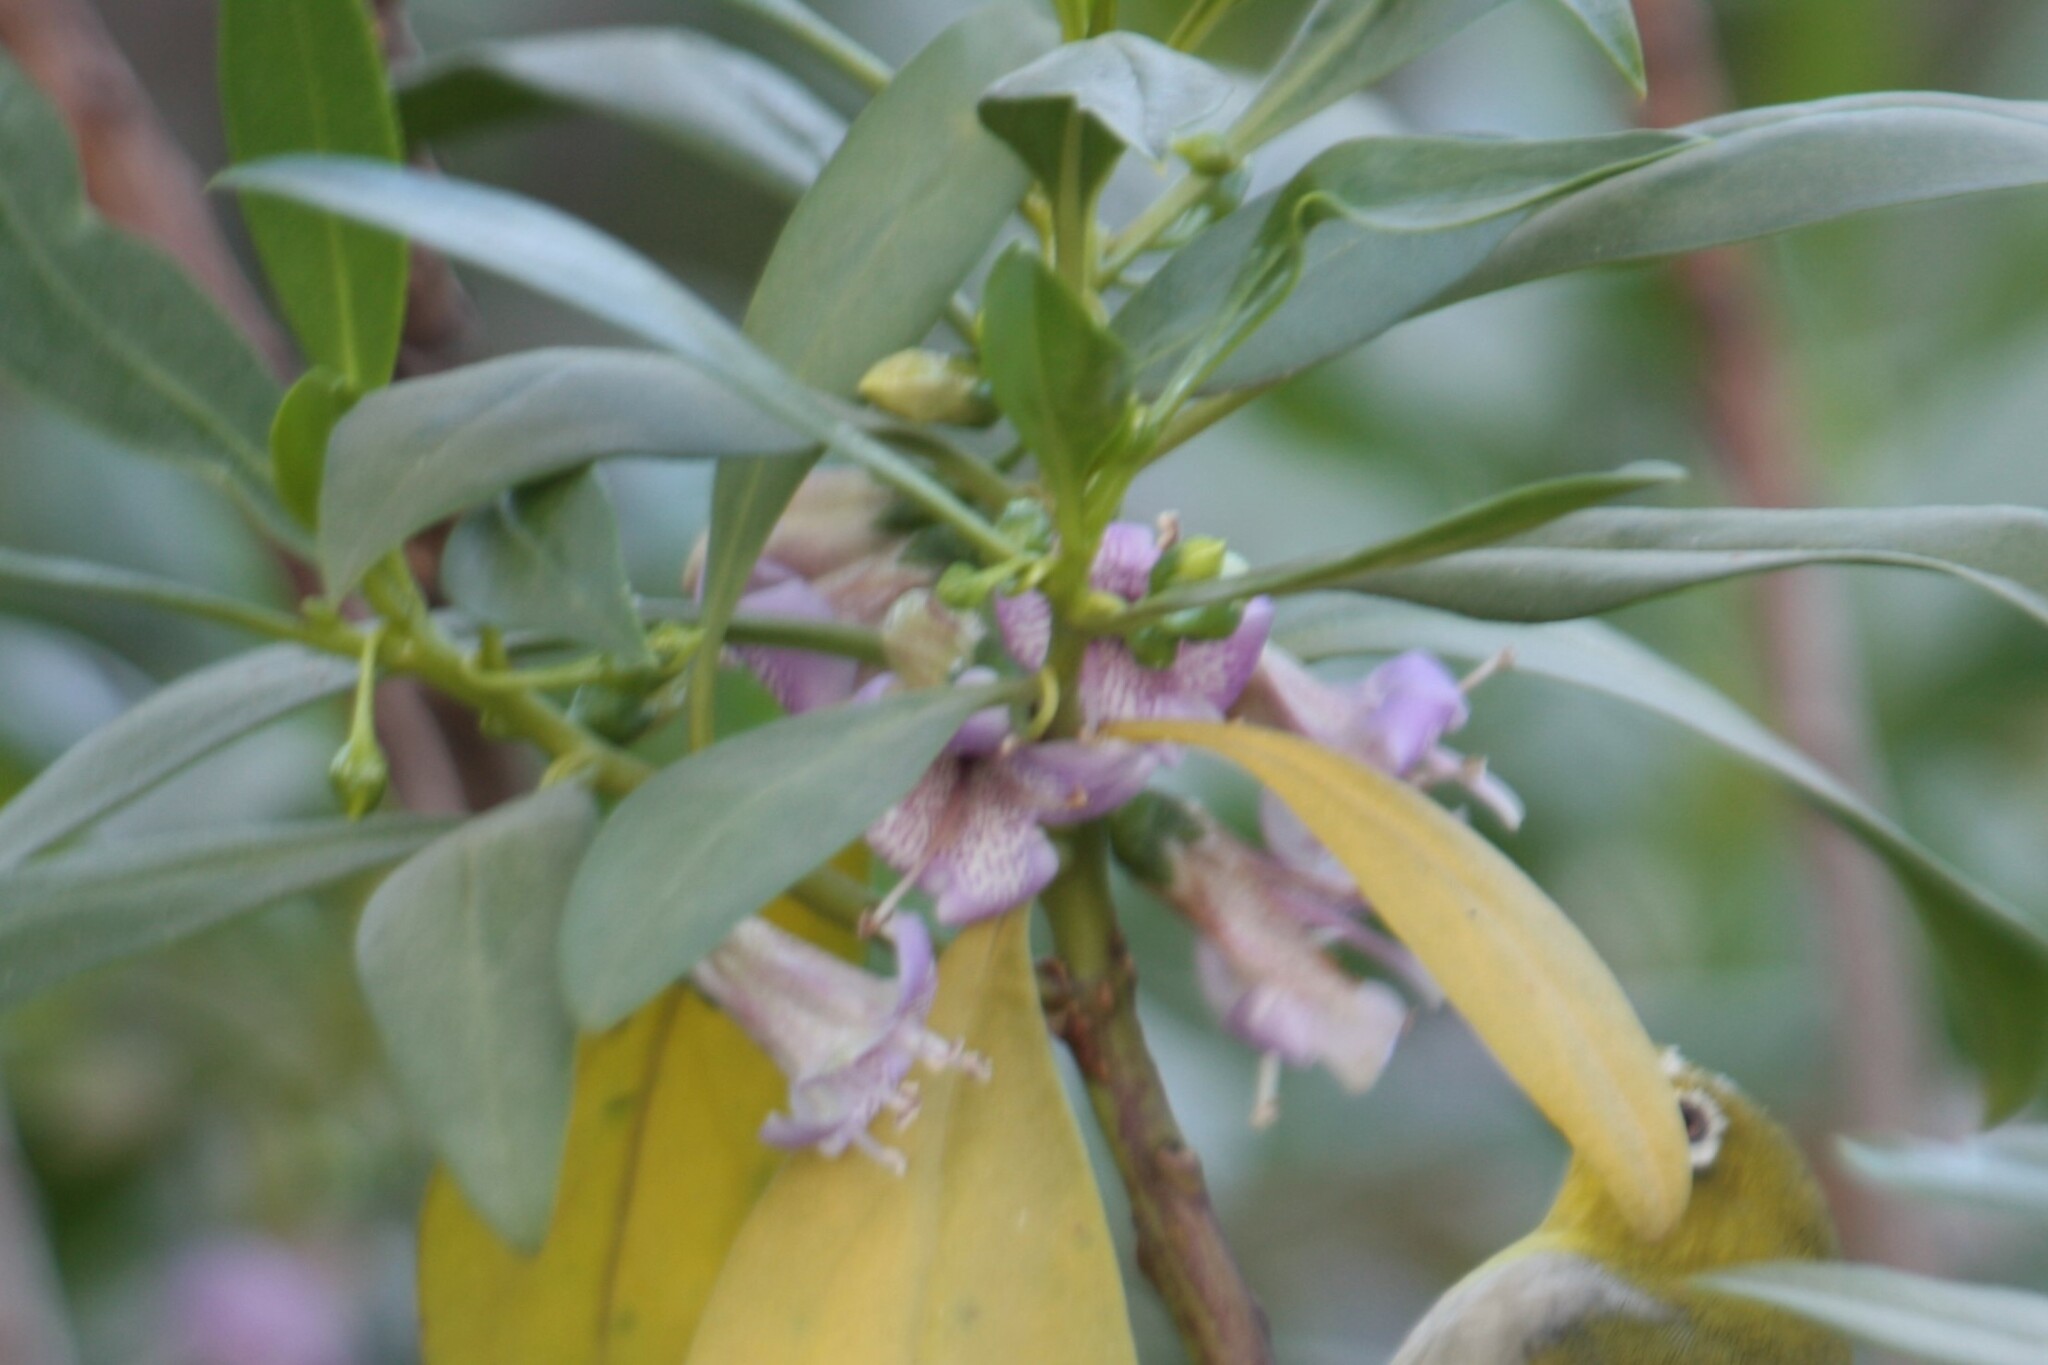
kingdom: Plantae
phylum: Tracheophyta
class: Magnoliopsida
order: Lamiales
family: Scrophulariaceae
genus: Myoporum
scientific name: Myoporum bontioides
